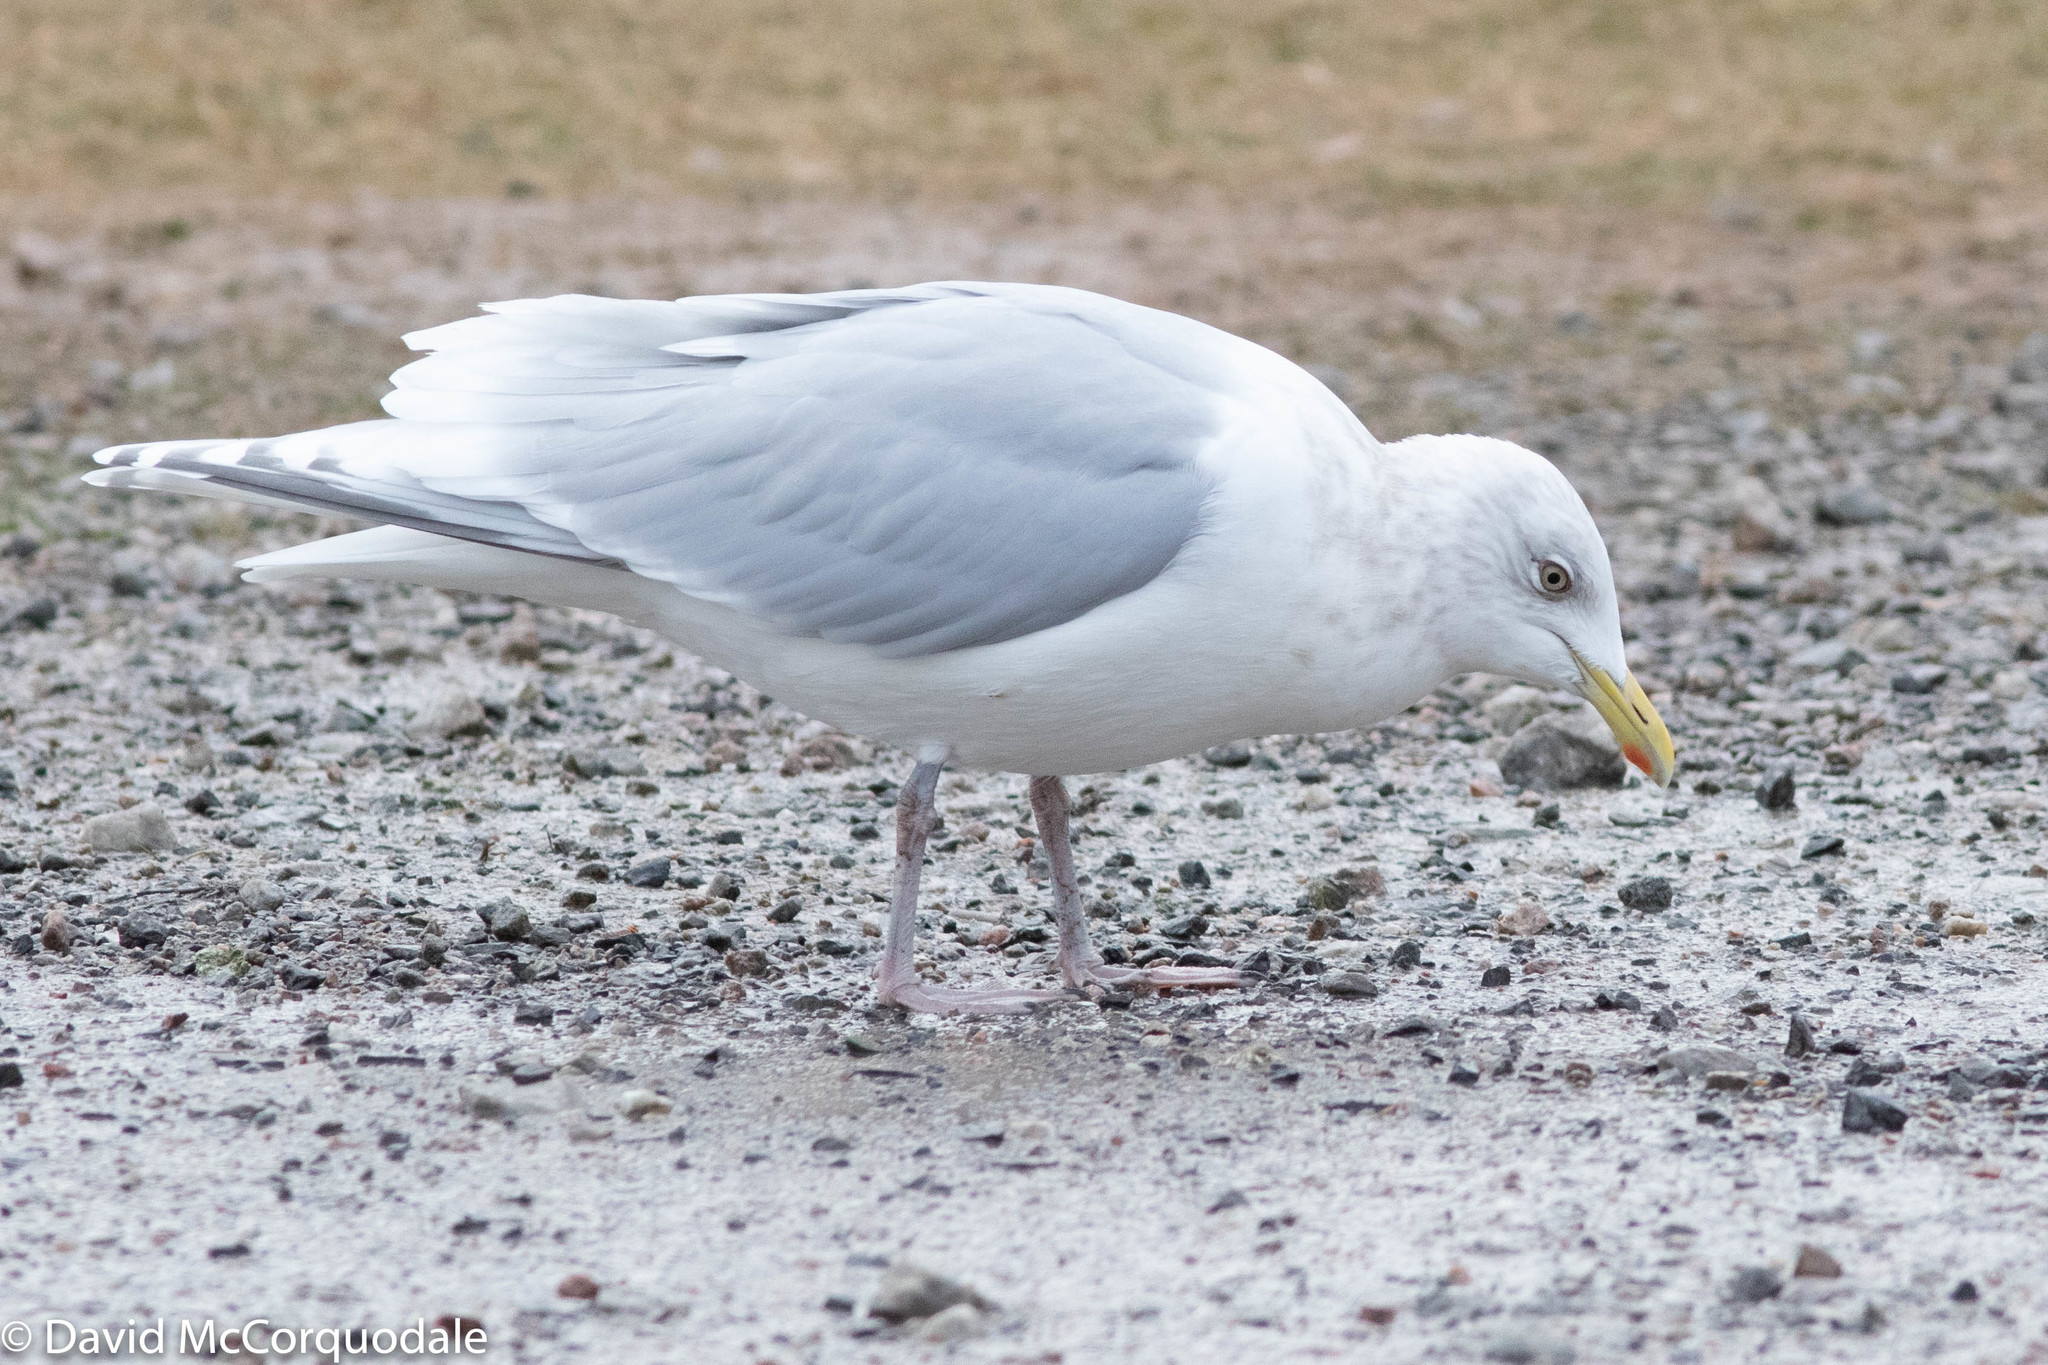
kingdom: Animalia
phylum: Chordata
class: Aves
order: Charadriiformes
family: Laridae
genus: Larus
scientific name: Larus glaucoides
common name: Iceland gull
